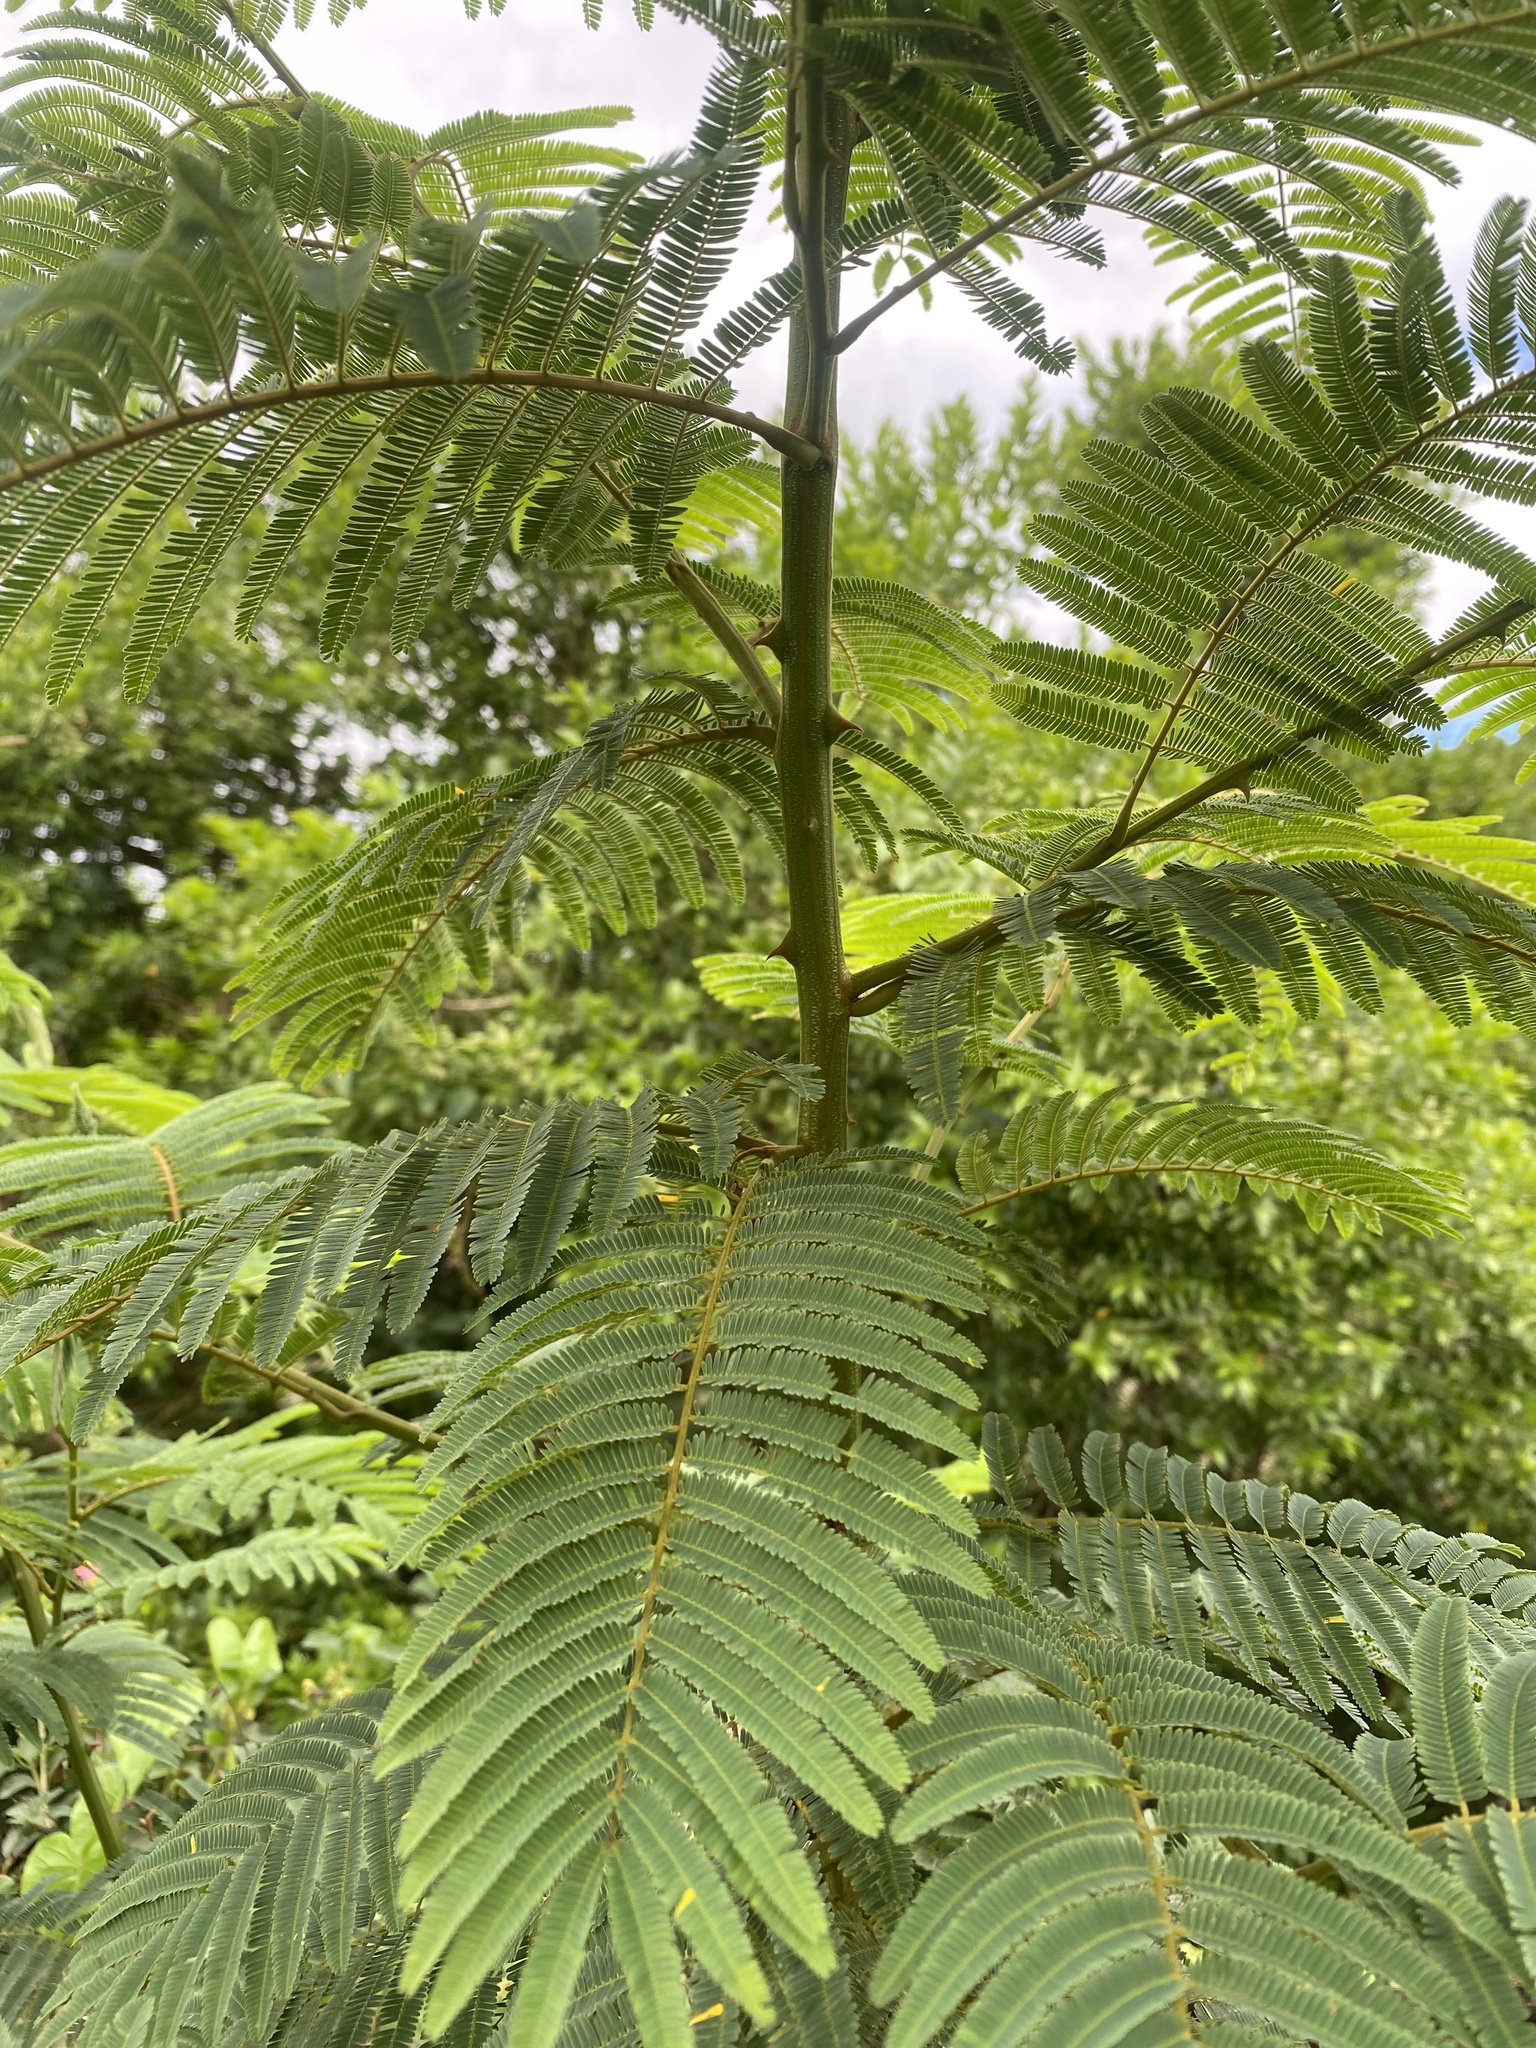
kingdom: Plantae
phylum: Tracheophyta
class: Magnoliopsida
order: Fabales
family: Fabaceae
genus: Senegalia
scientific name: Senegalia ataxacantha
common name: Flame acacia
